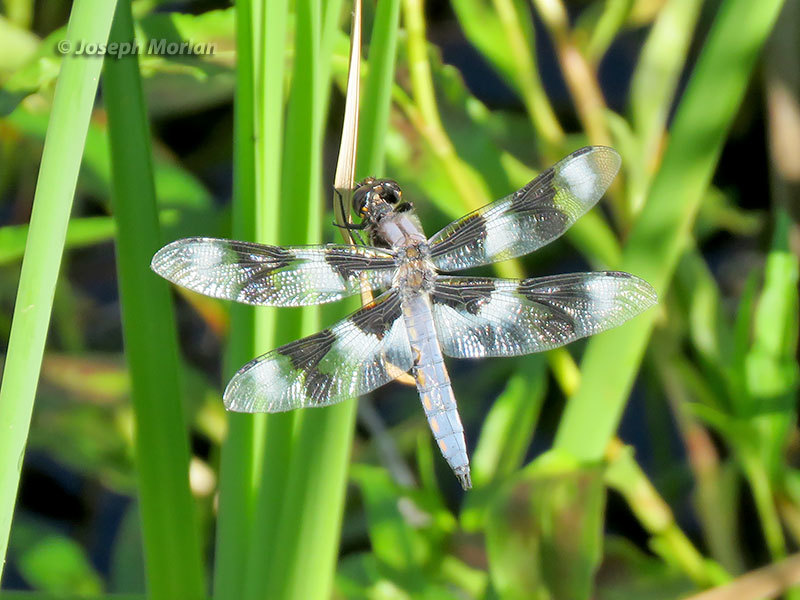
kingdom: Animalia
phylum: Arthropoda
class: Insecta
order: Odonata
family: Libellulidae
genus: Libellula
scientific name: Libellula forensis
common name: Eight-spotted skimmer
